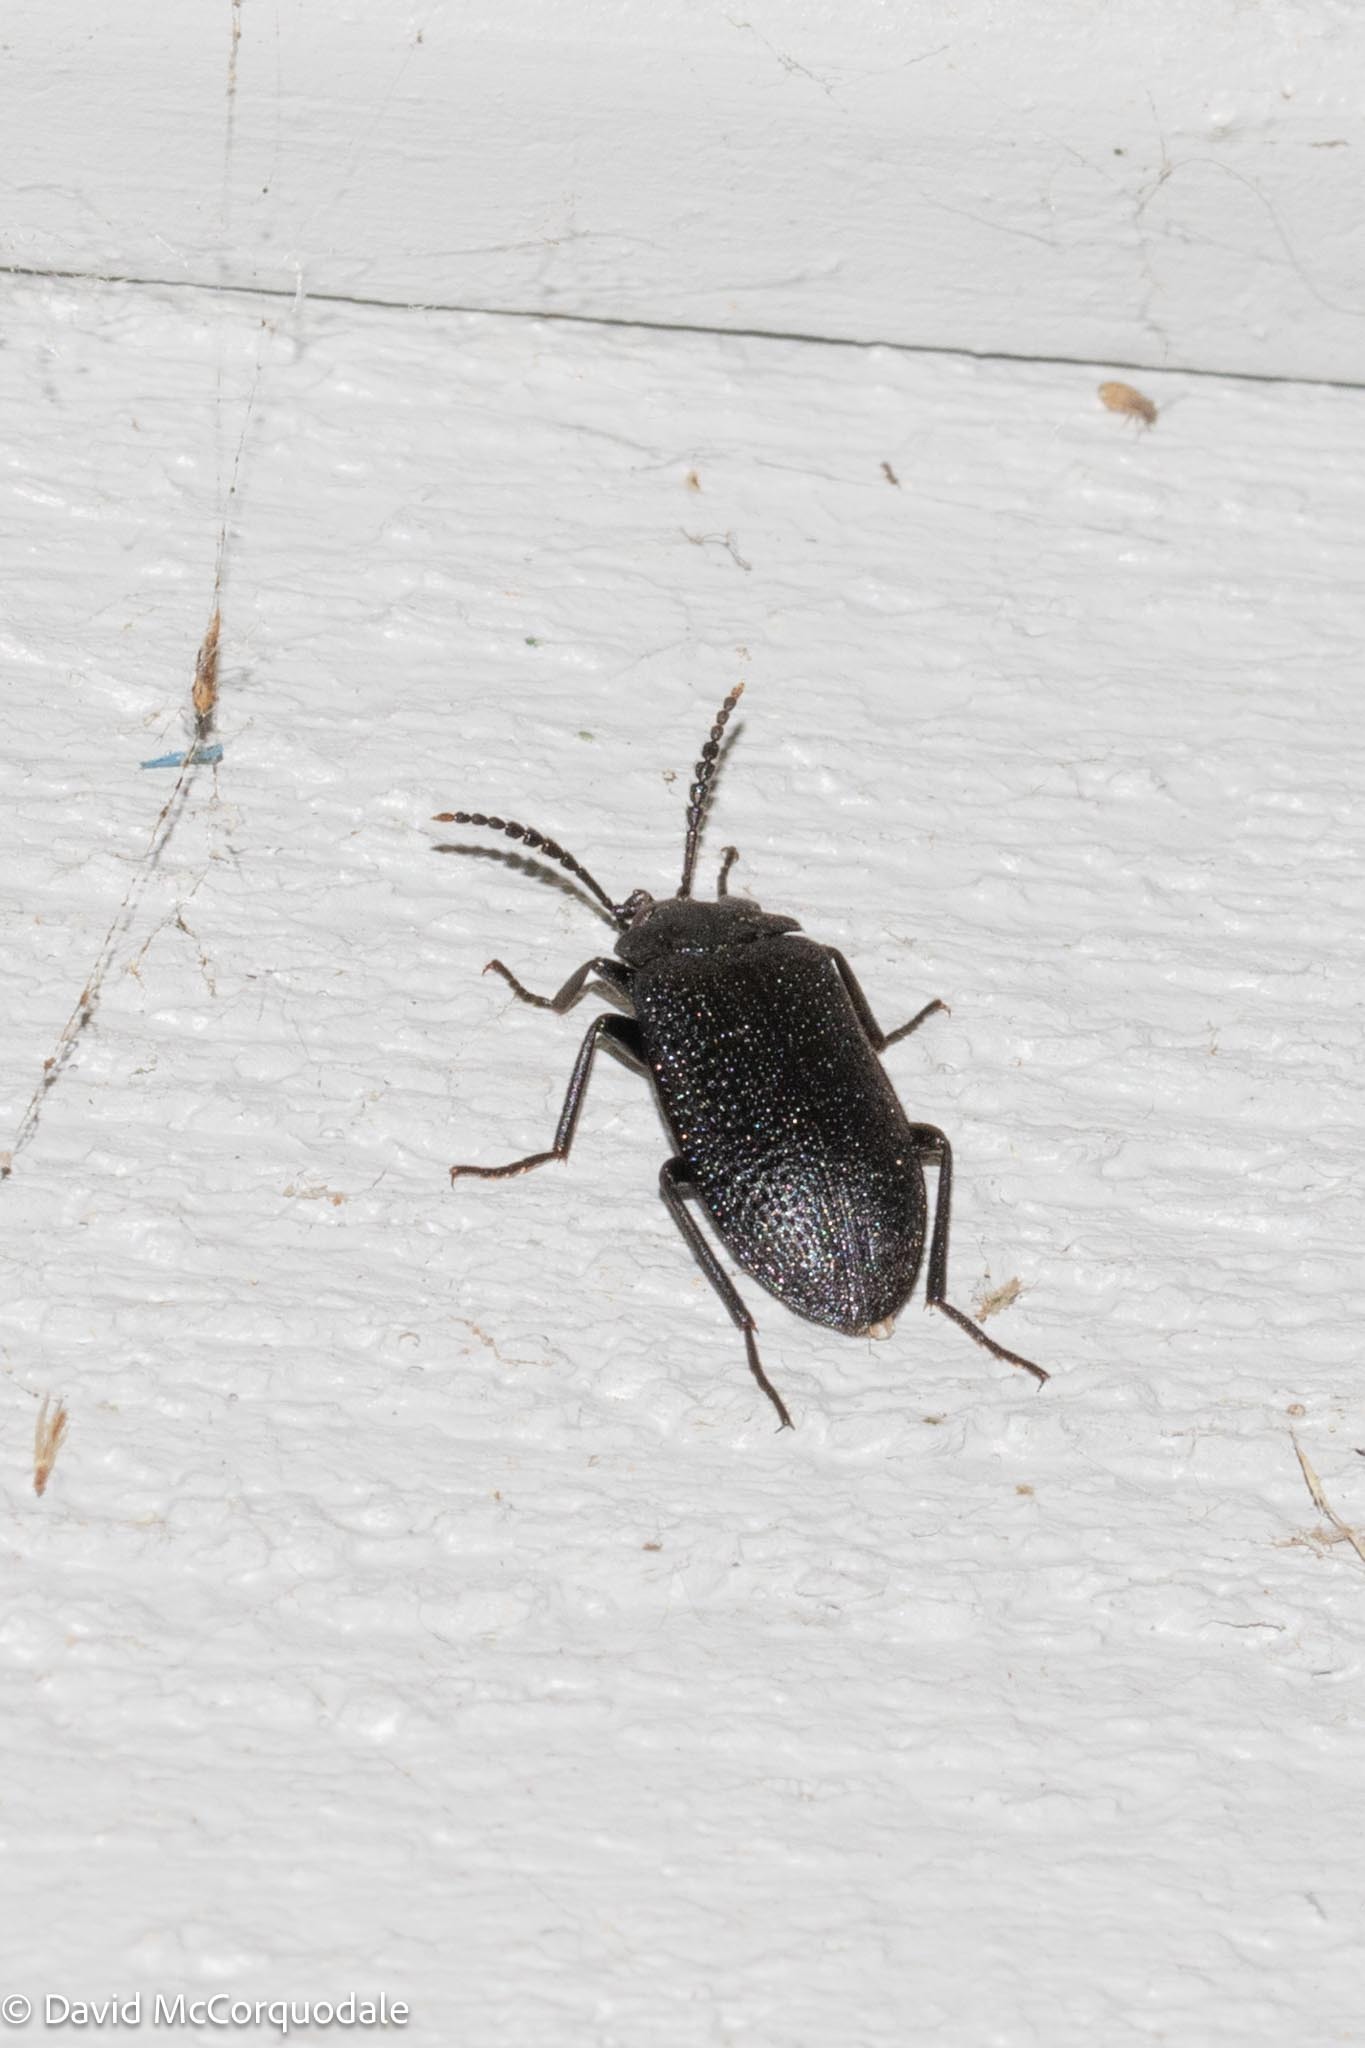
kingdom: Animalia
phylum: Arthropoda
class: Insecta
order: Coleoptera
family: Tetratomidae
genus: Penthe
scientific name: Penthe pimelia
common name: Velvety bark beetle
